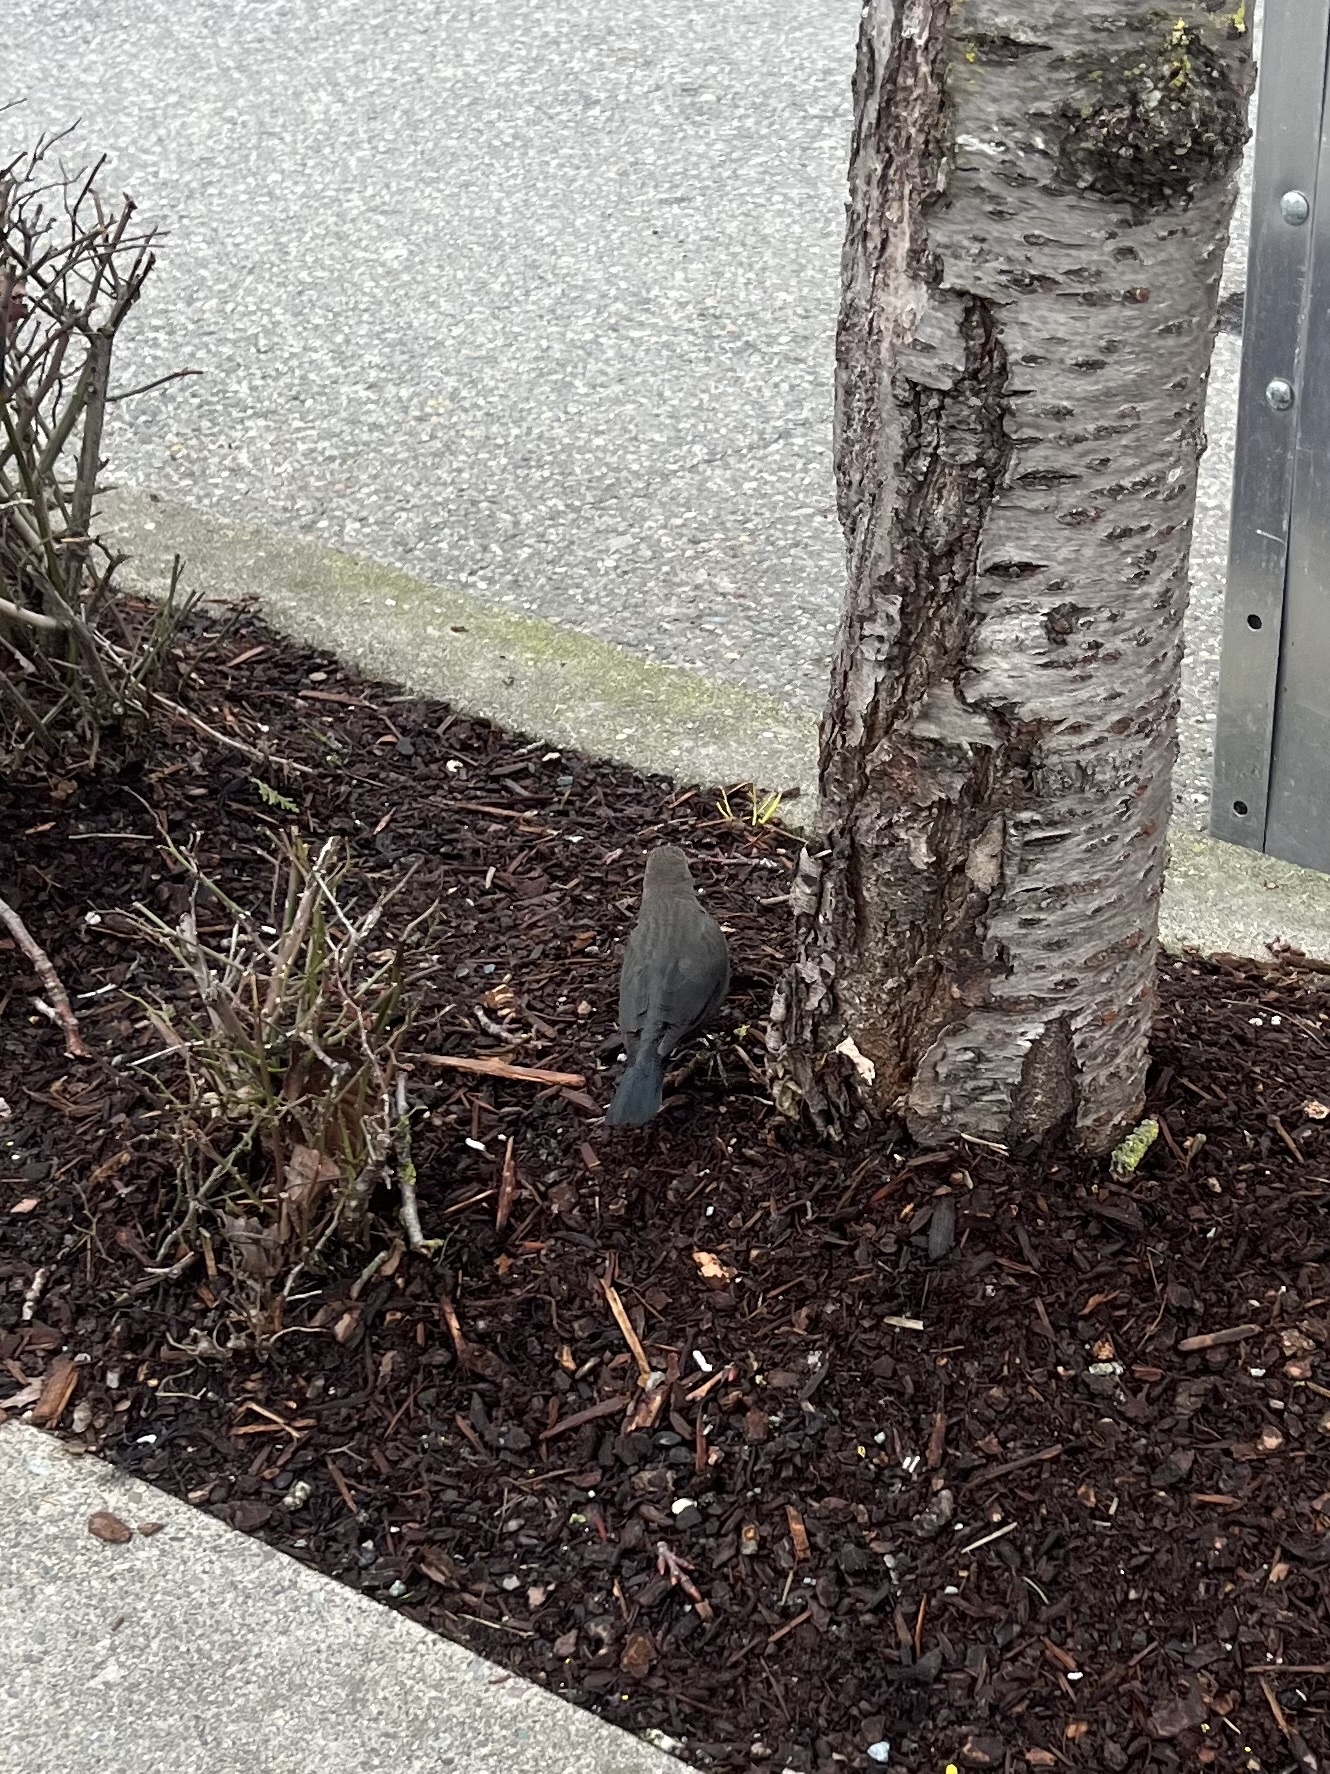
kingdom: Animalia
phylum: Chordata
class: Aves
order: Passeriformes
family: Icteridae
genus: Euphagus
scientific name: Euphagus cyanocephalus
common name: Brewer's blackbird
